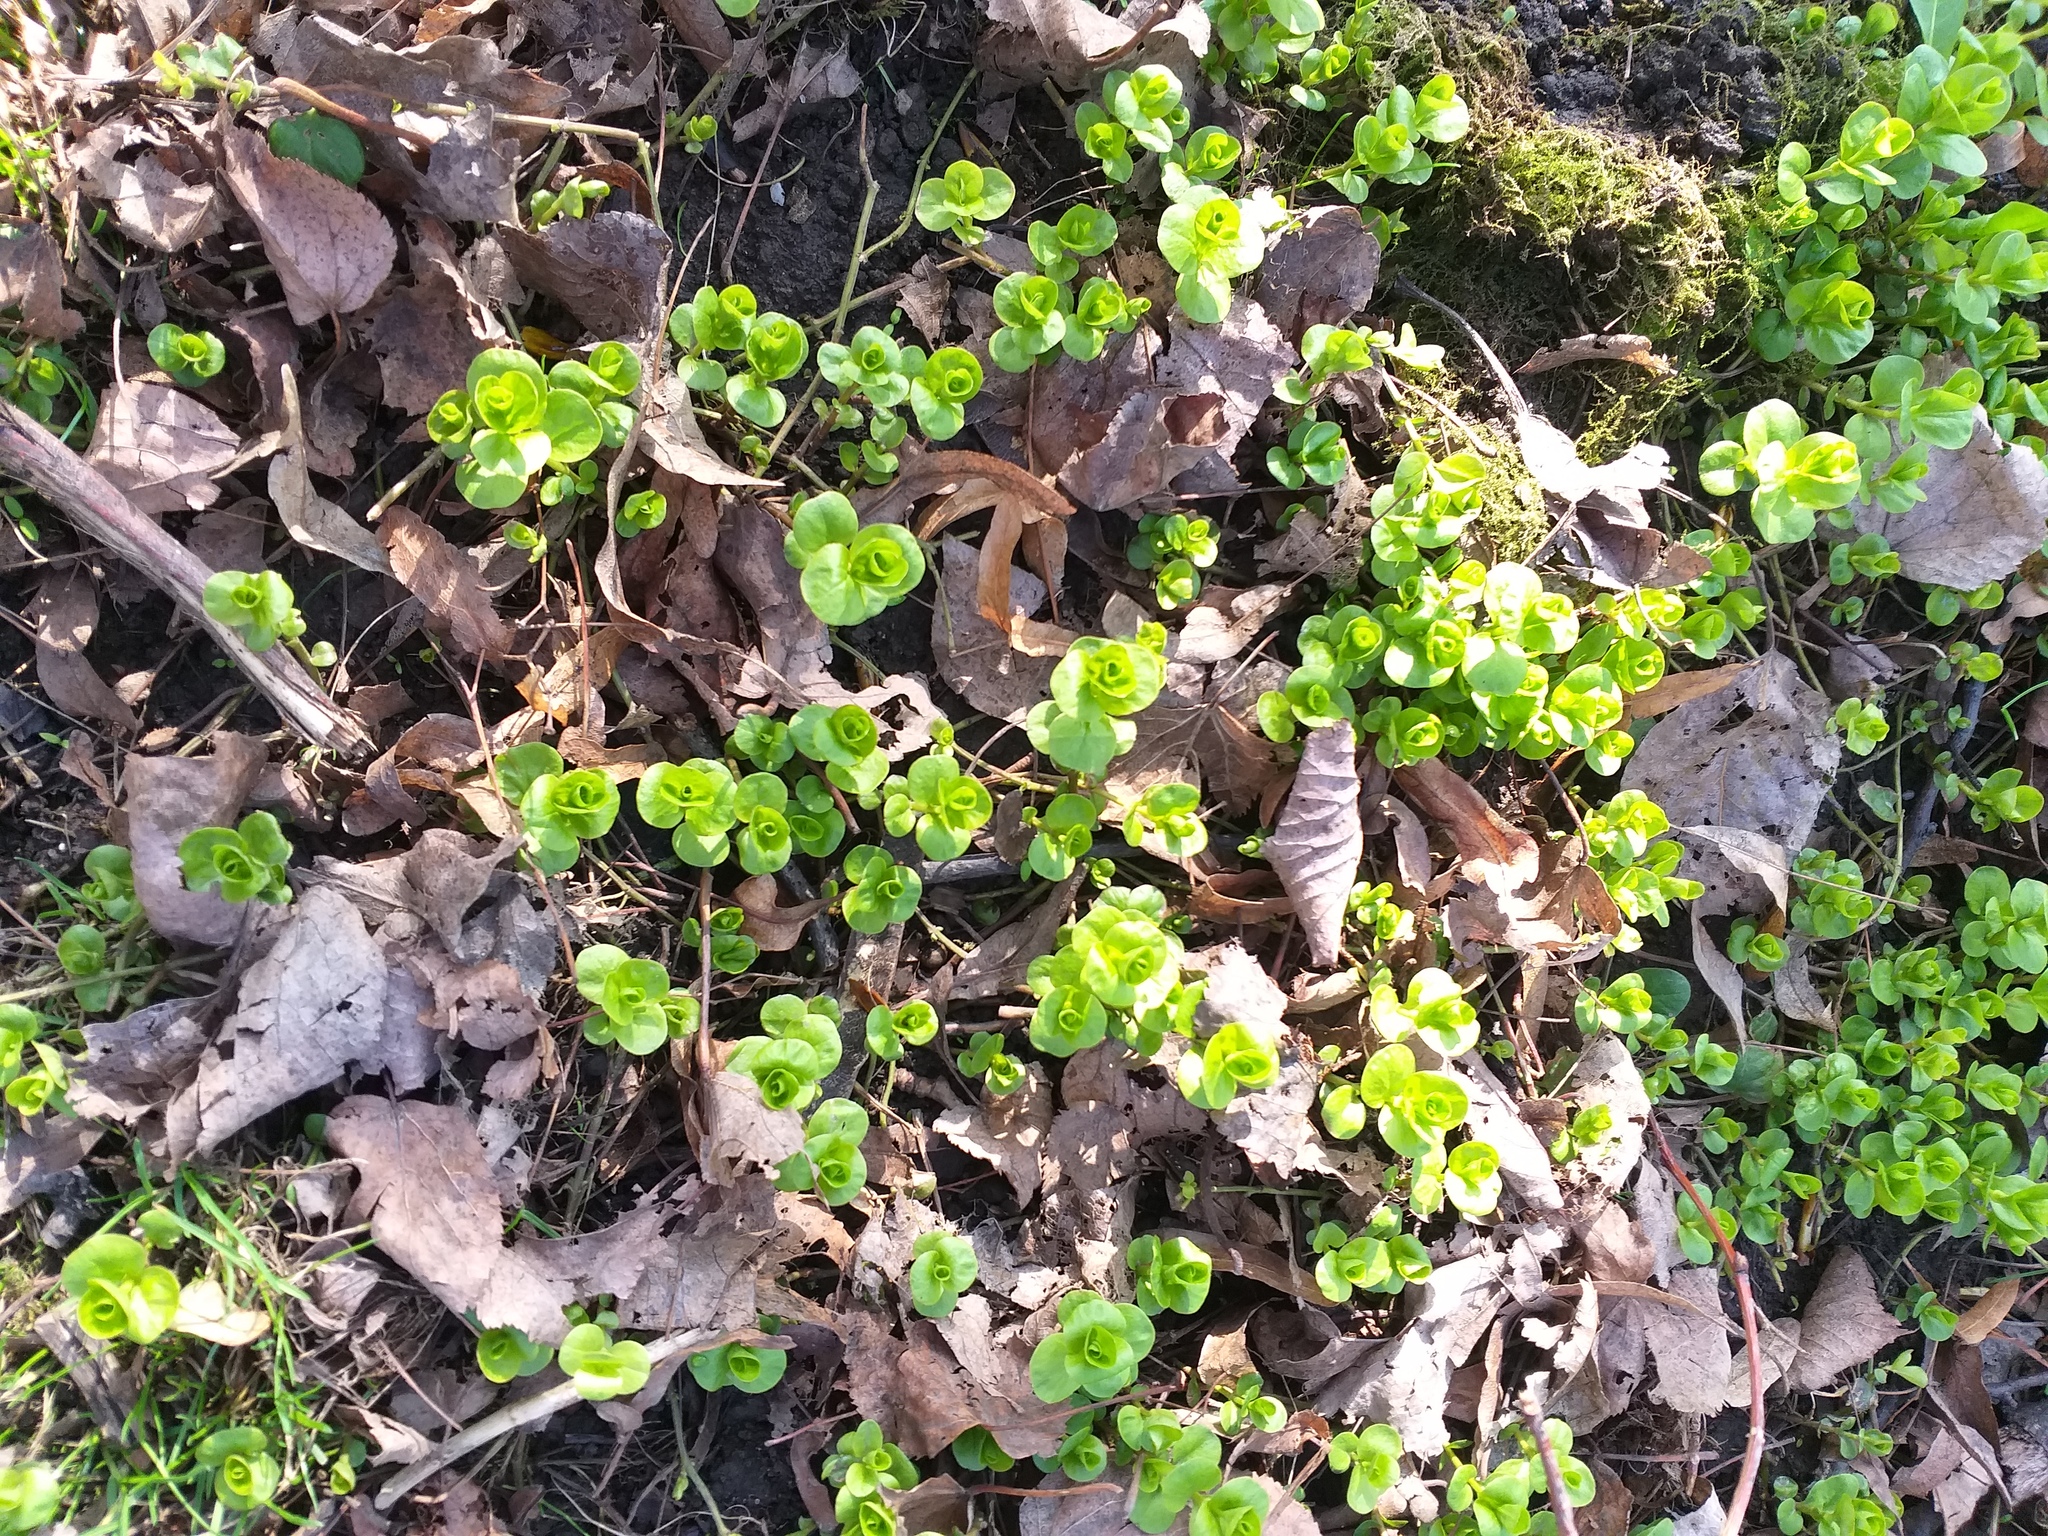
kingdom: Plantae
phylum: Tracheophyta
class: Magnoliopsida
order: Ericales
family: Primulaceae
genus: Lysimachia
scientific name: Lysimachia nummularia
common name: Moneywort
